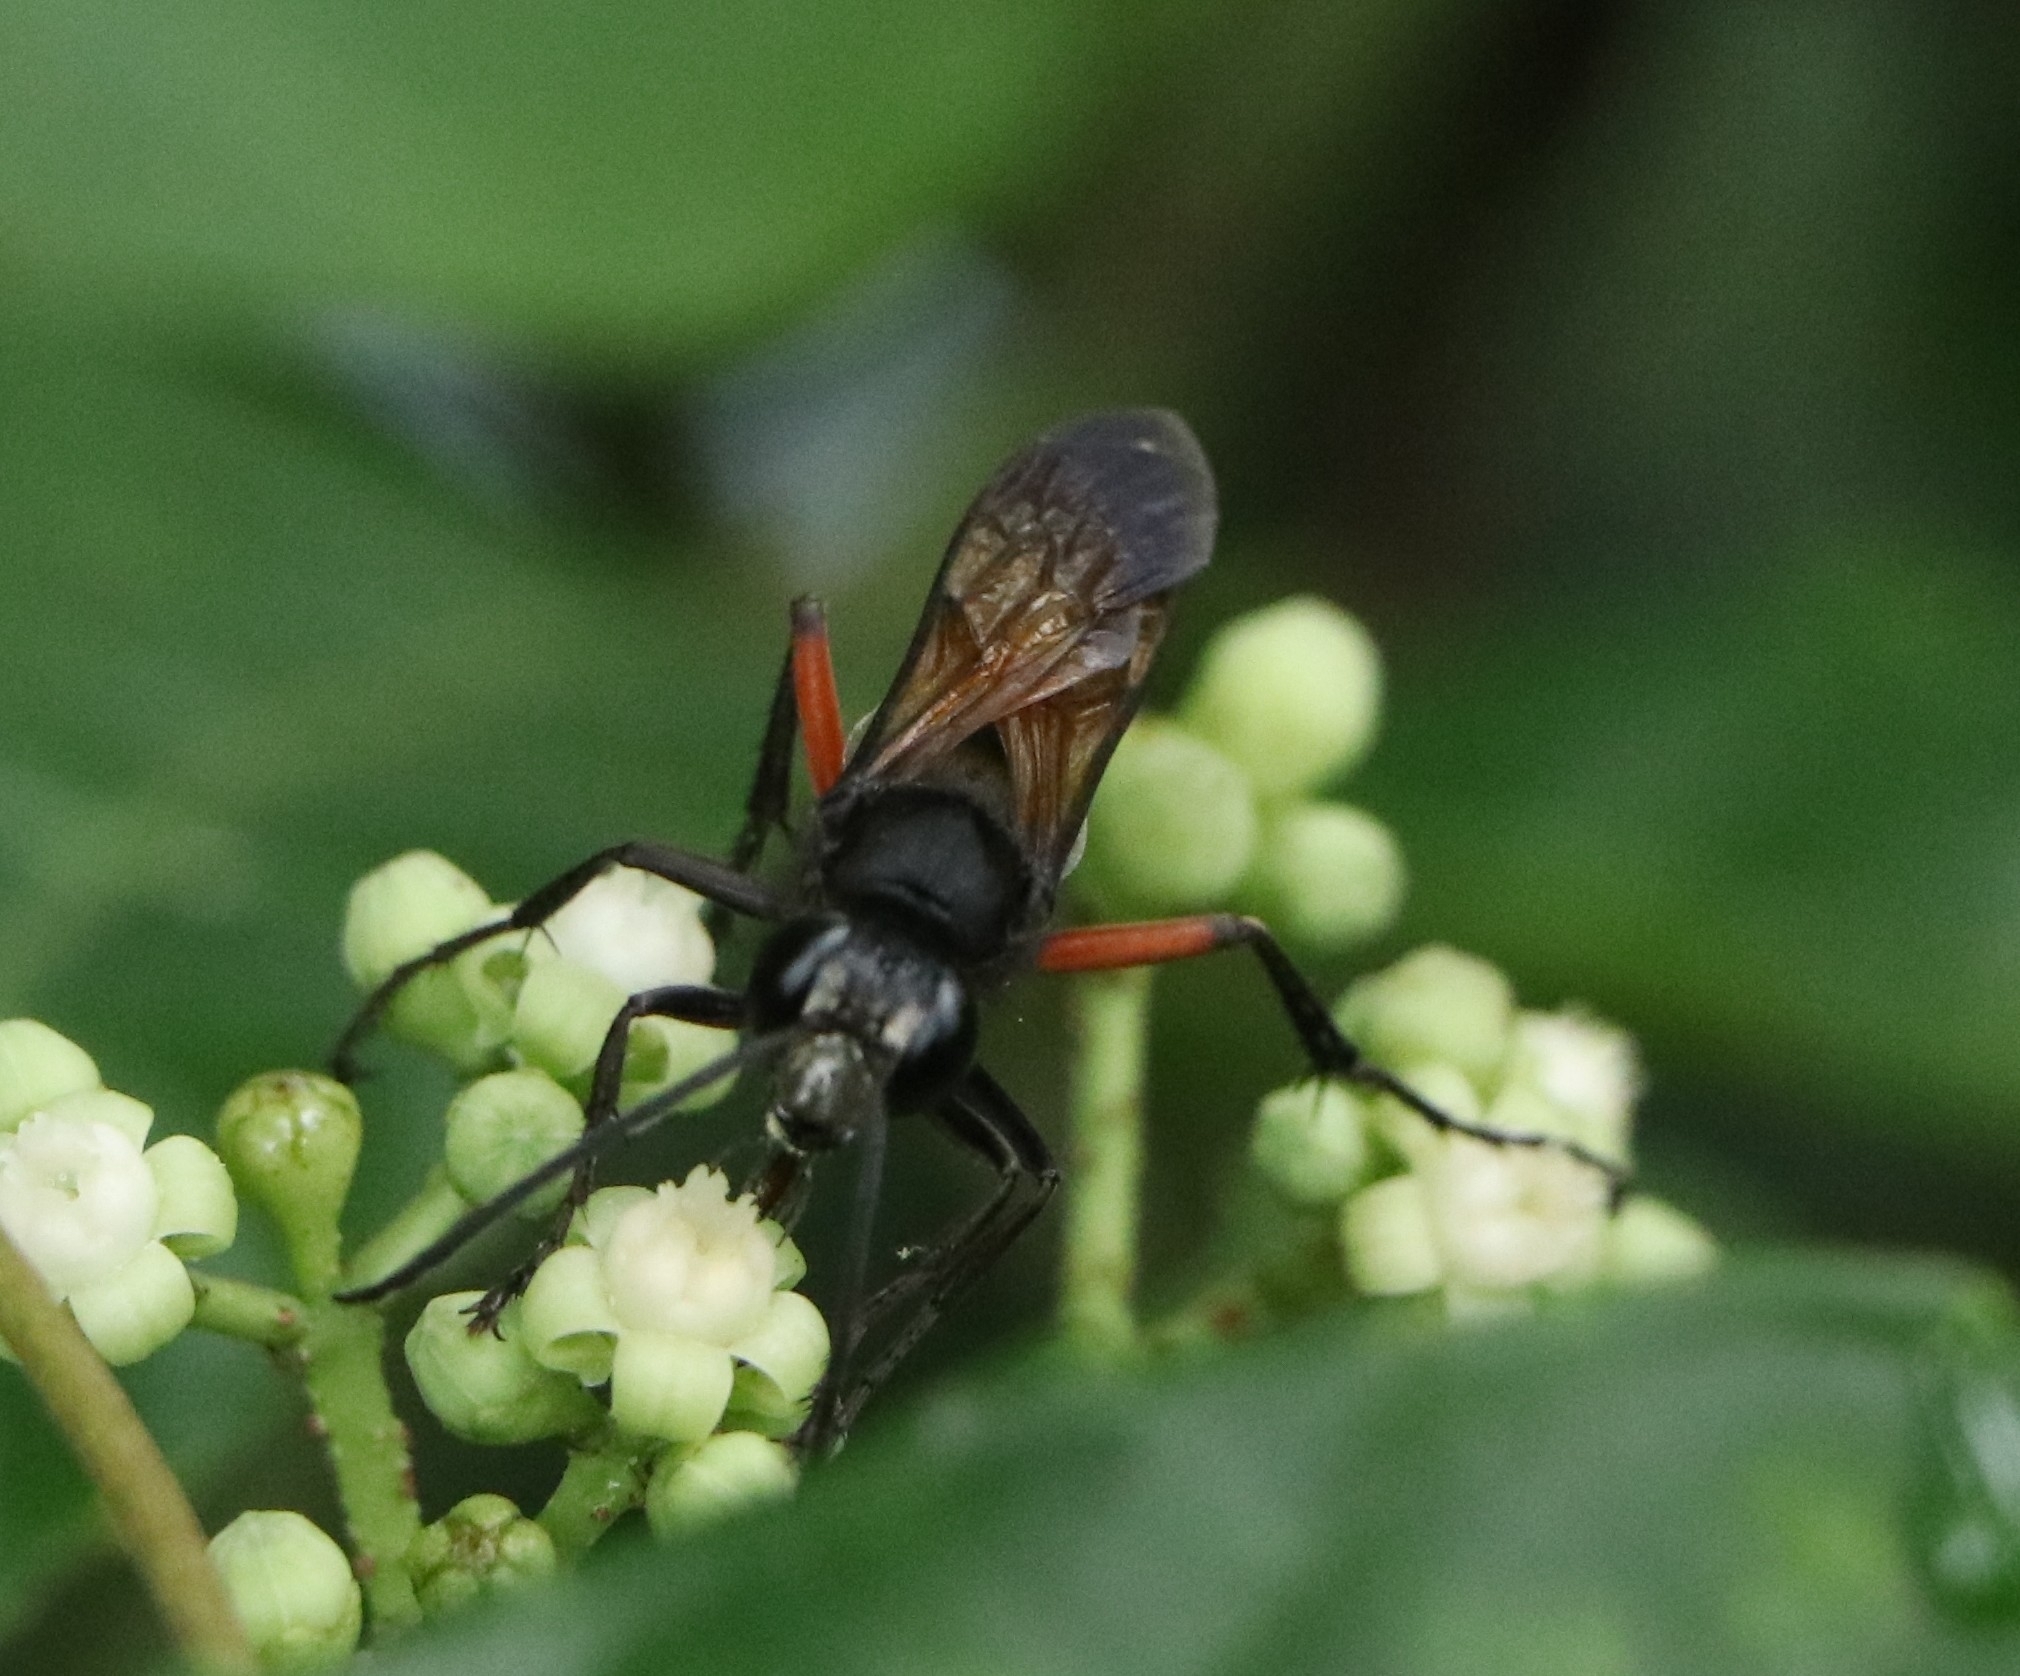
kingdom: Animalia
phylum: Arthropoda
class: Insecta
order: Hymenoptera
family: Sphecidae
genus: Sphex
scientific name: Sphex subtruncatus
